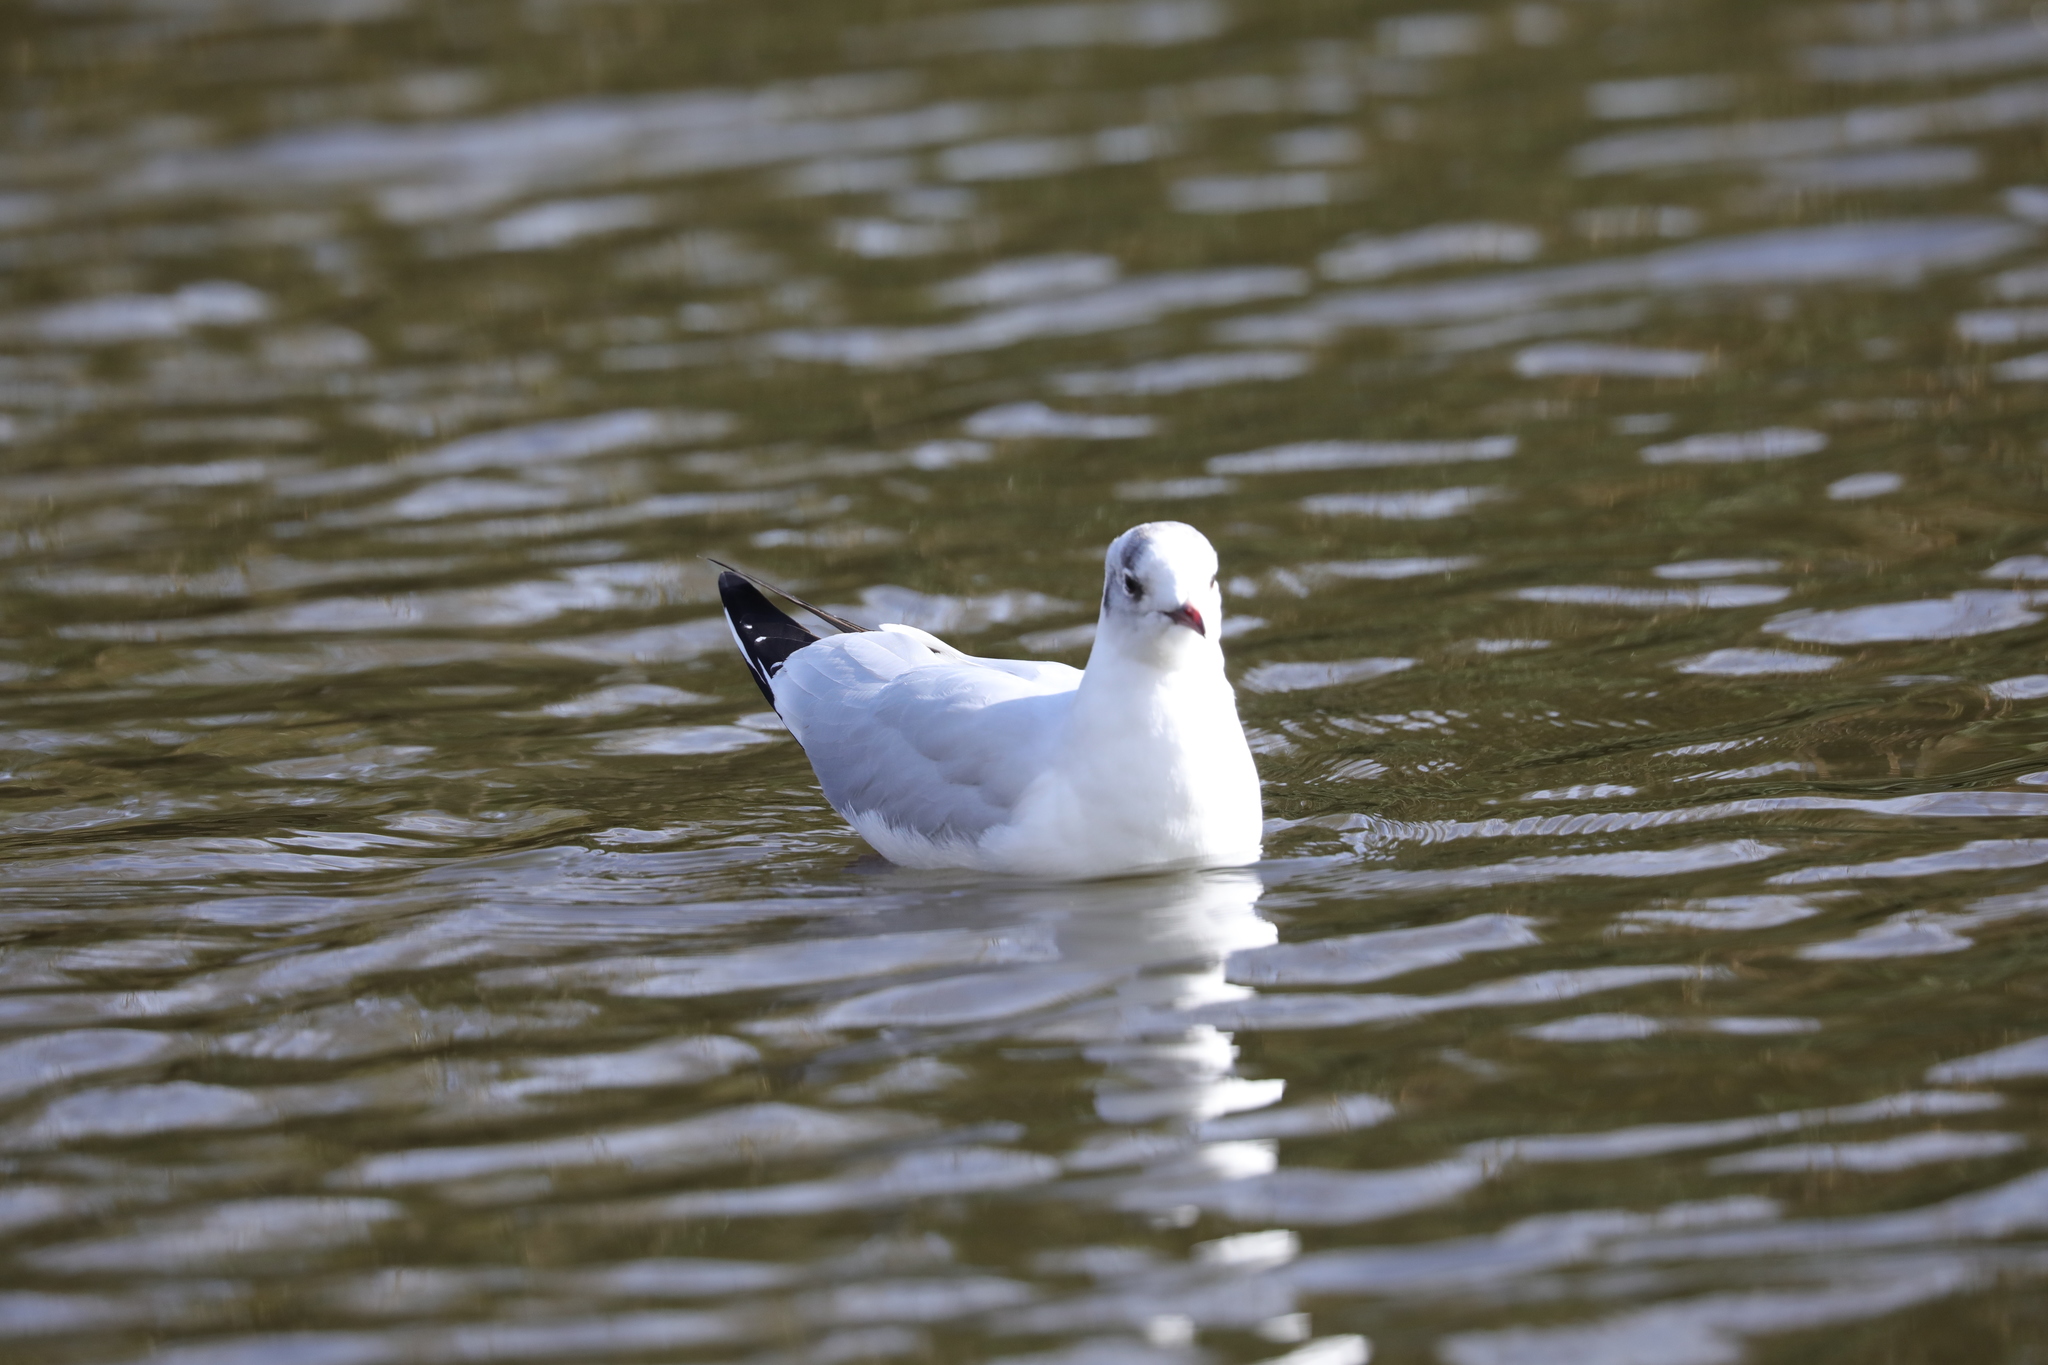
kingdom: Animalia
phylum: Chordata
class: Aves
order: Charadriiformes
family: Laridae
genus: Chroicocephalus
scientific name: Chroicocephalus ridibundus
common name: Black-headed gull
